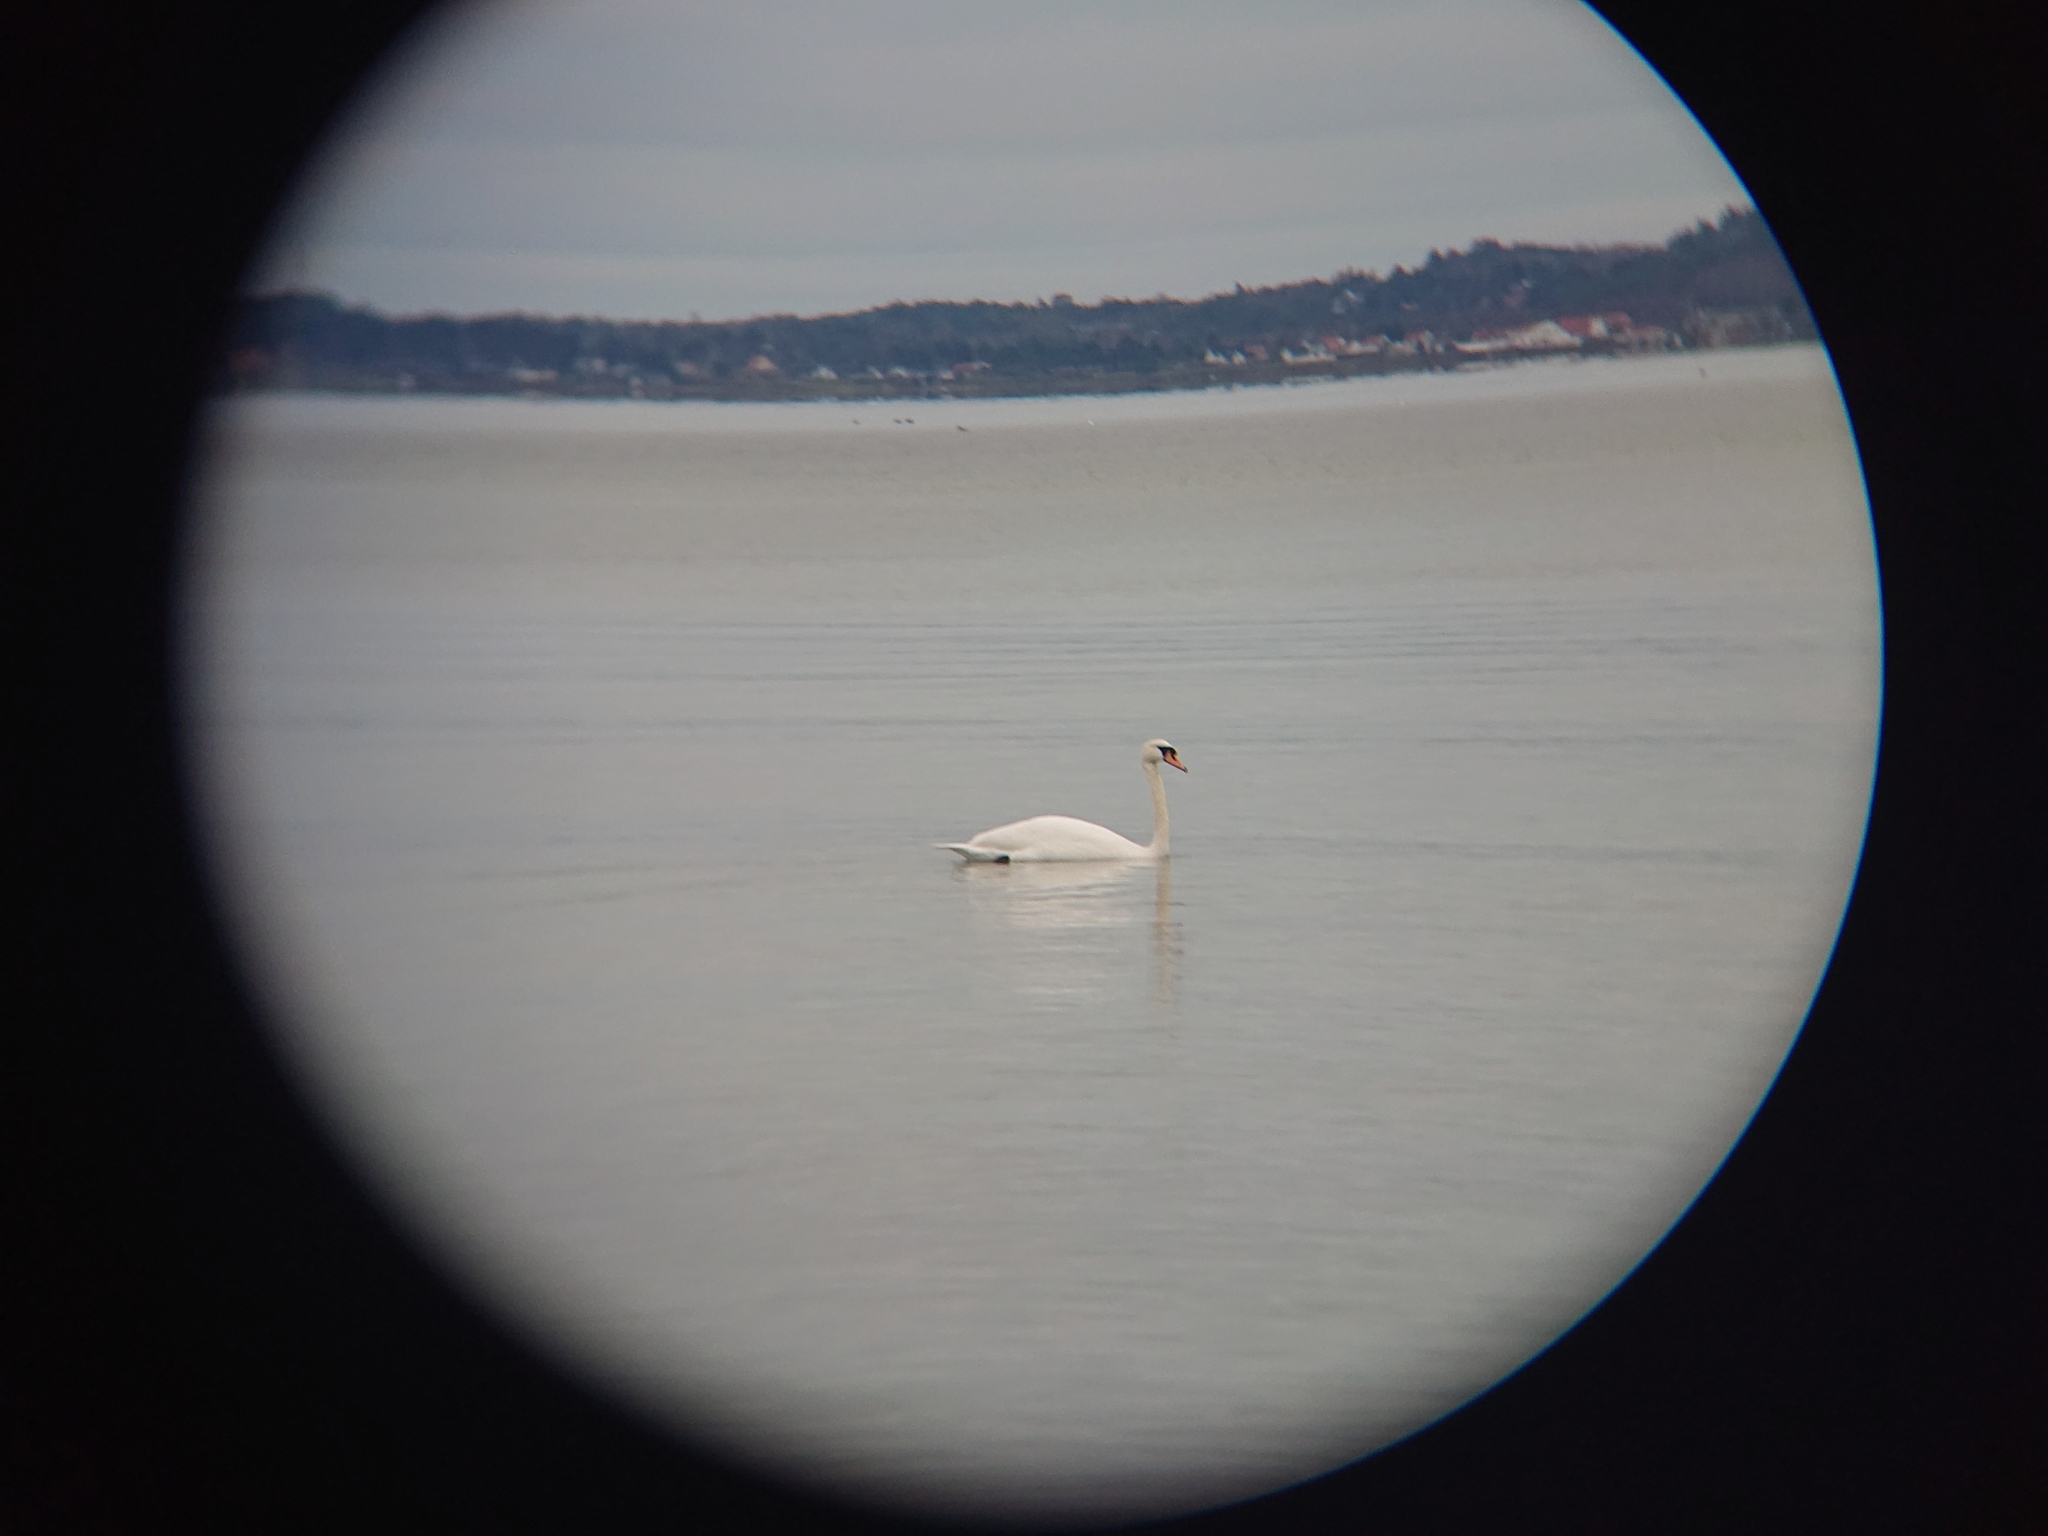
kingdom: Animalia
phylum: Chordata
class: Aves
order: Anseriformes
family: Anatidae
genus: Cygnus
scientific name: Cygnus olor
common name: Mute swan
